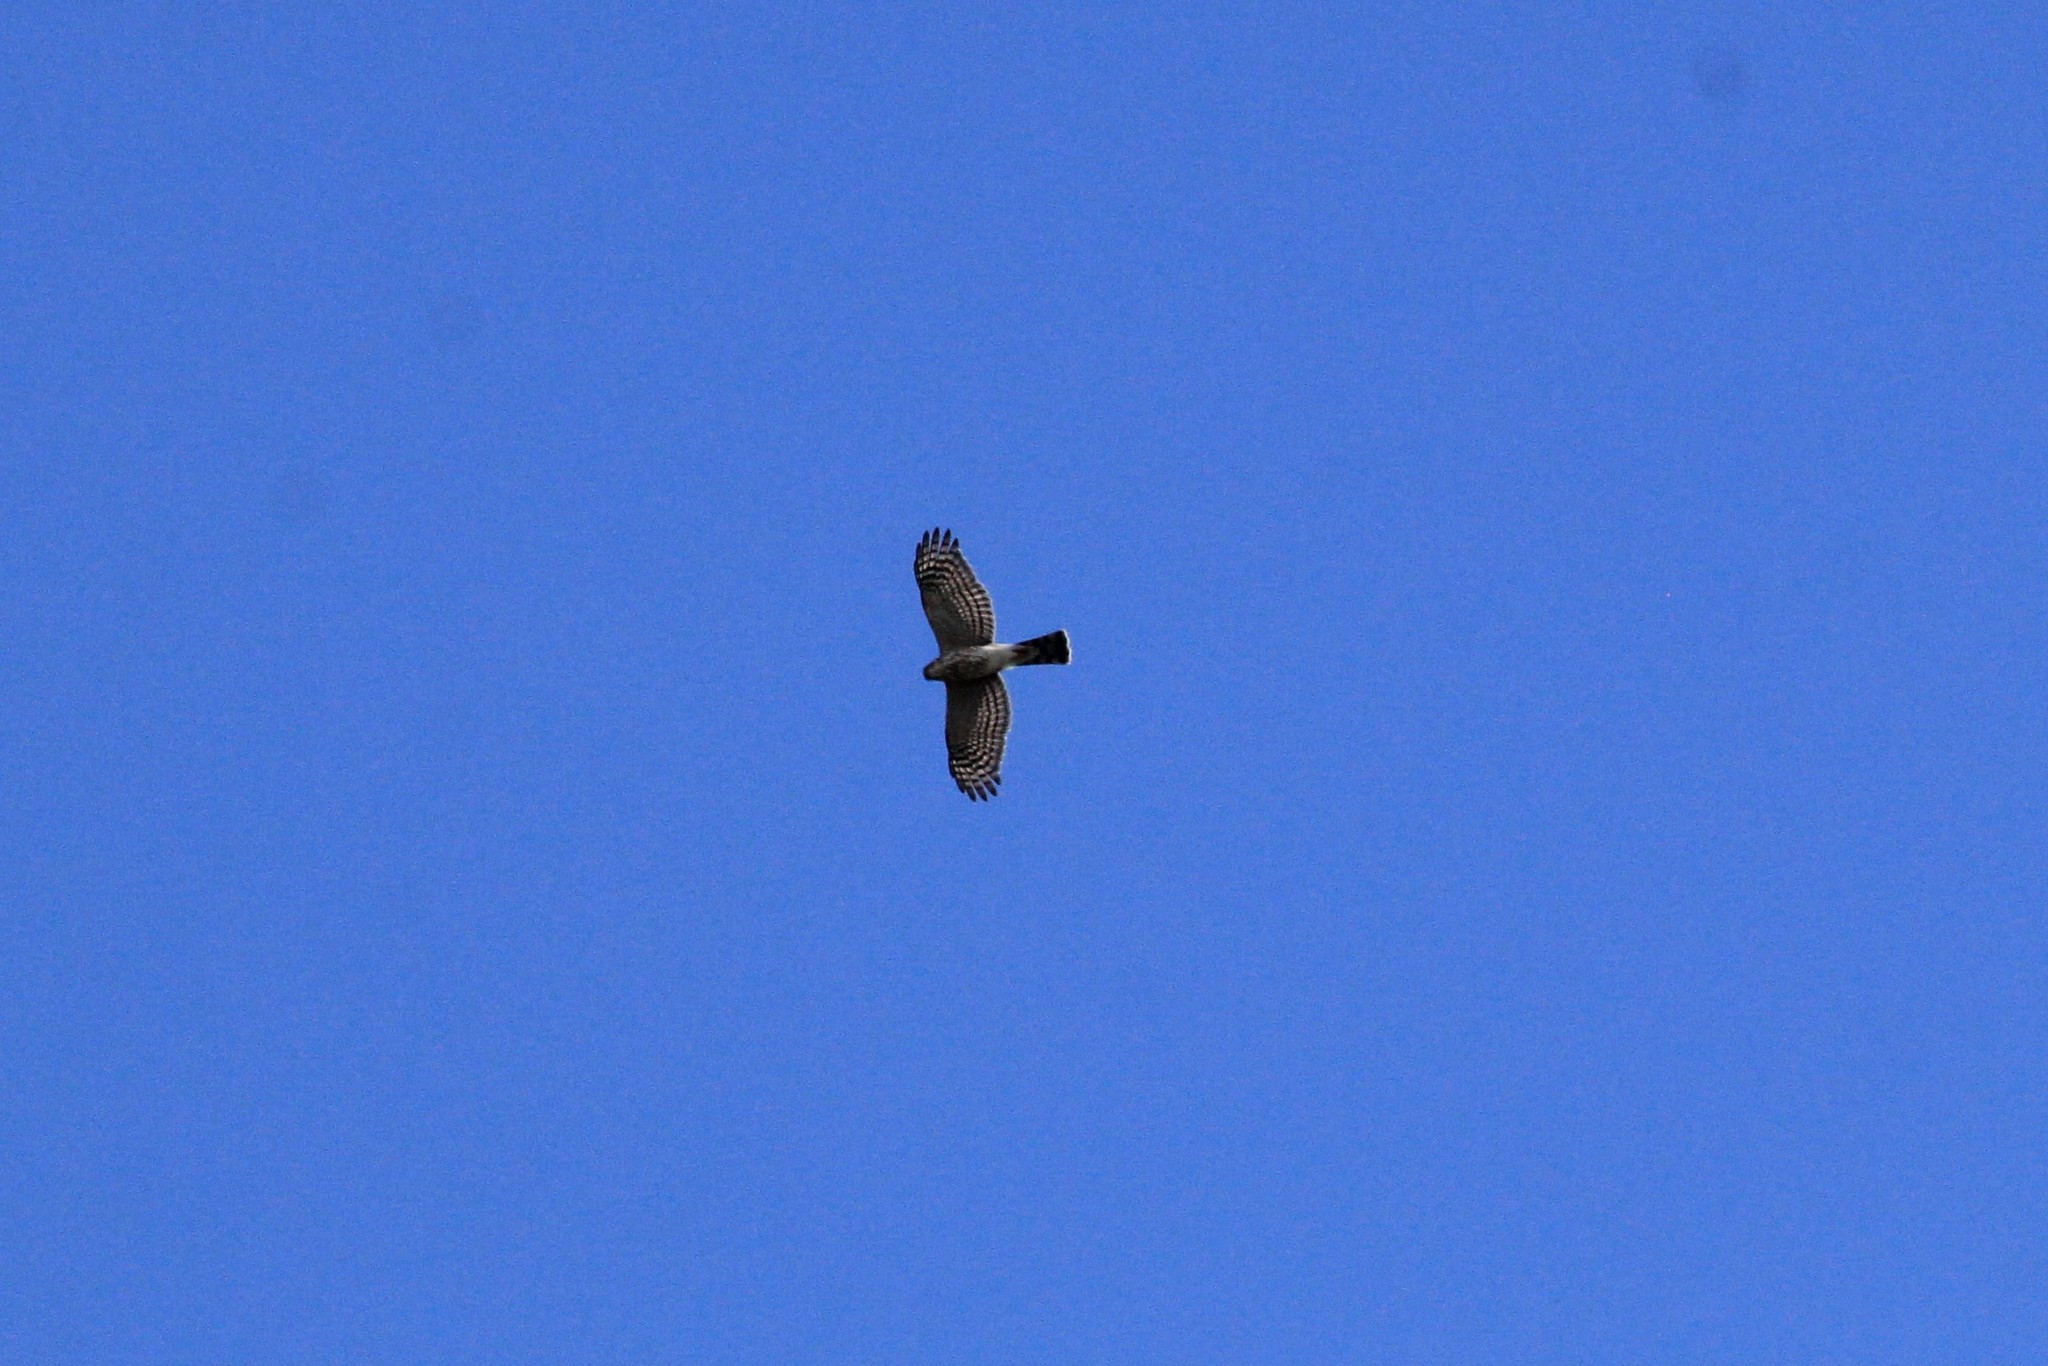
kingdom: Animalia
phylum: Chordata
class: Aves
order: Accipitriformes
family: Accipitridae
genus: Accipiter
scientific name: Accipiter striatus
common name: Sharp-shinned hawk
